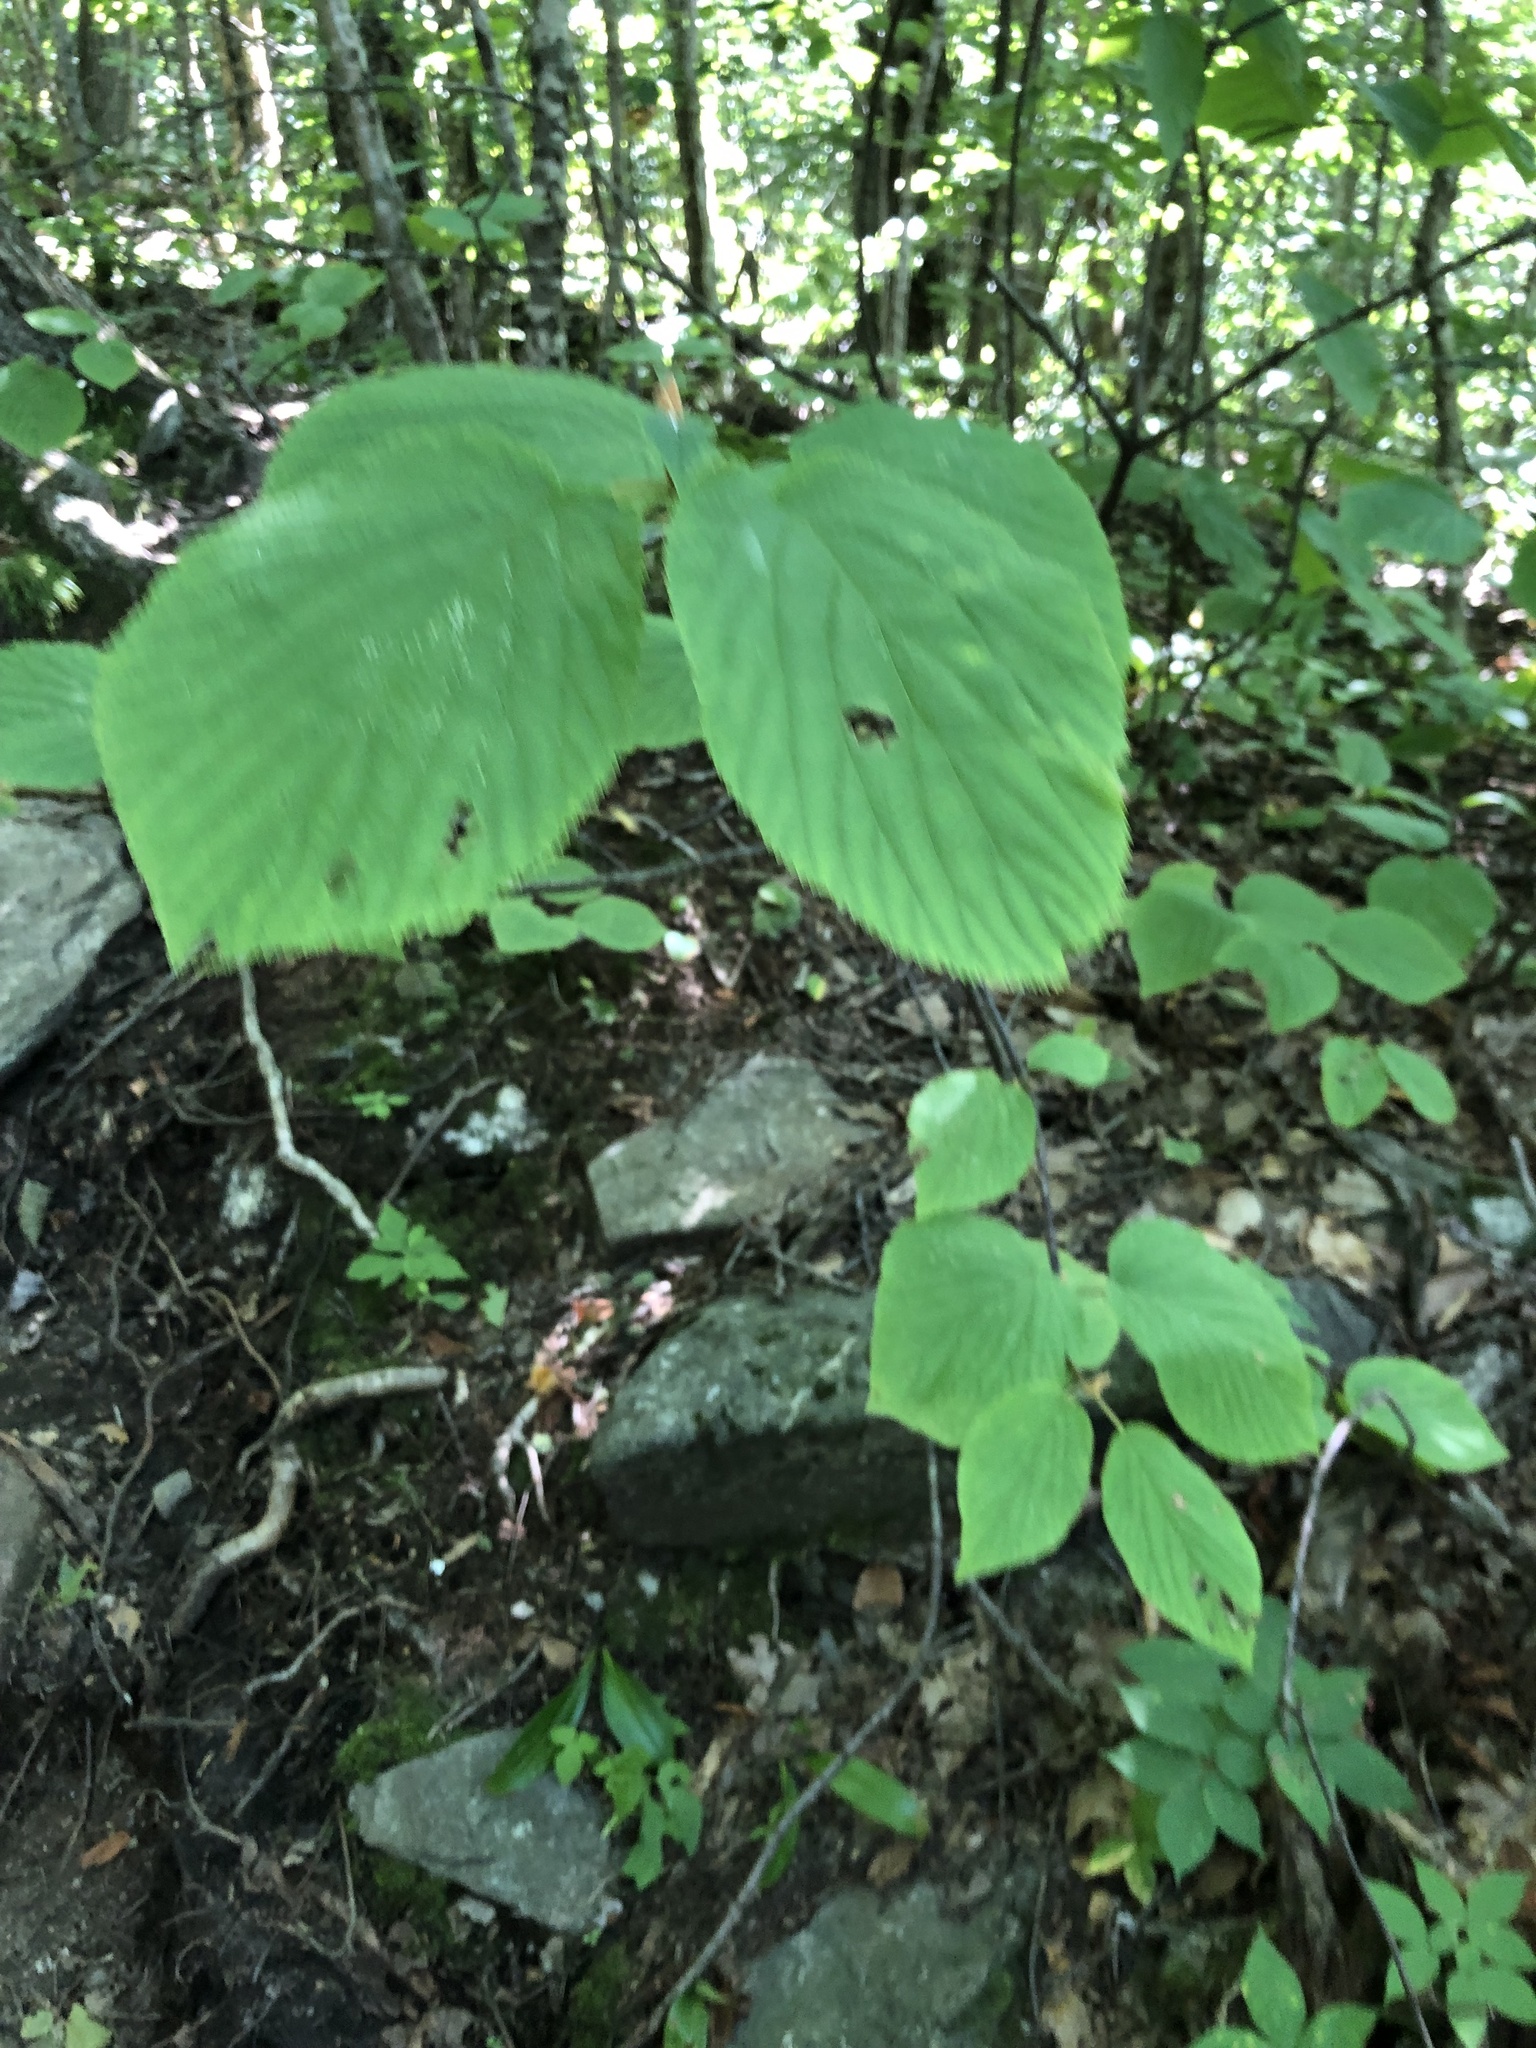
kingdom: Plantae
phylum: Tracheophyta
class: Magnoliopsida
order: Dipsacales
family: Viburnaceae
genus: Viburnum
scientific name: Viburnum lantanoides
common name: Hobblebush
